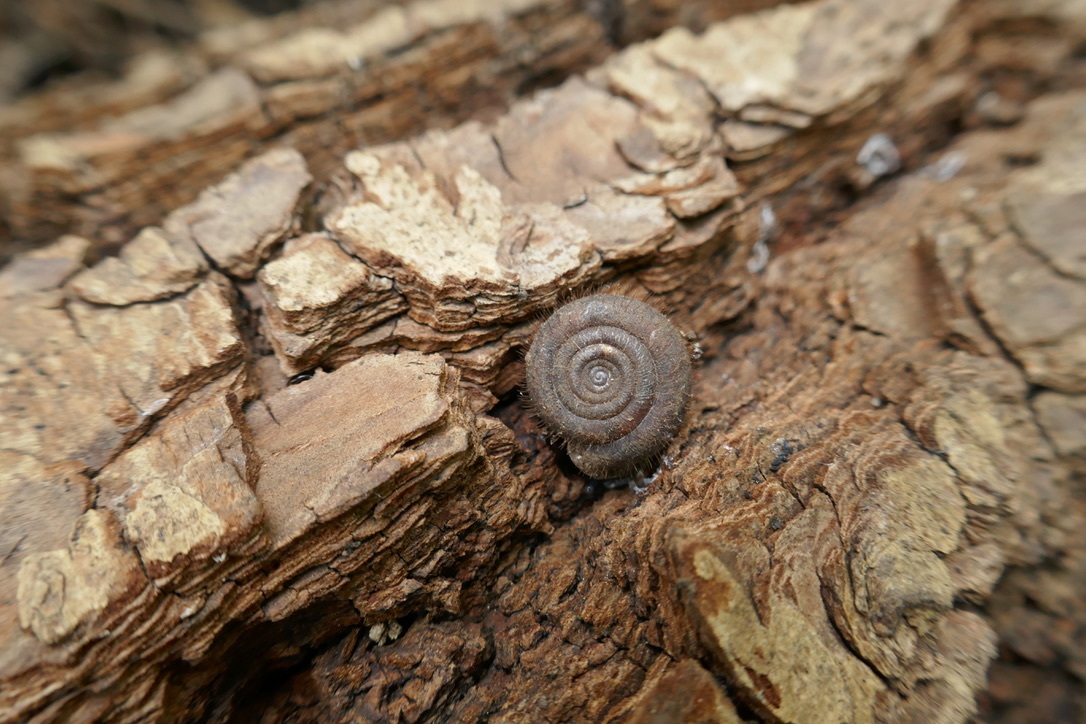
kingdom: Animalia
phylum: Mollusca
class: Gastropoda
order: Stylommatophora
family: Helicodontidae
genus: Helicodonta
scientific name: Helicodonta obvoluta
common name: Cheese snail
